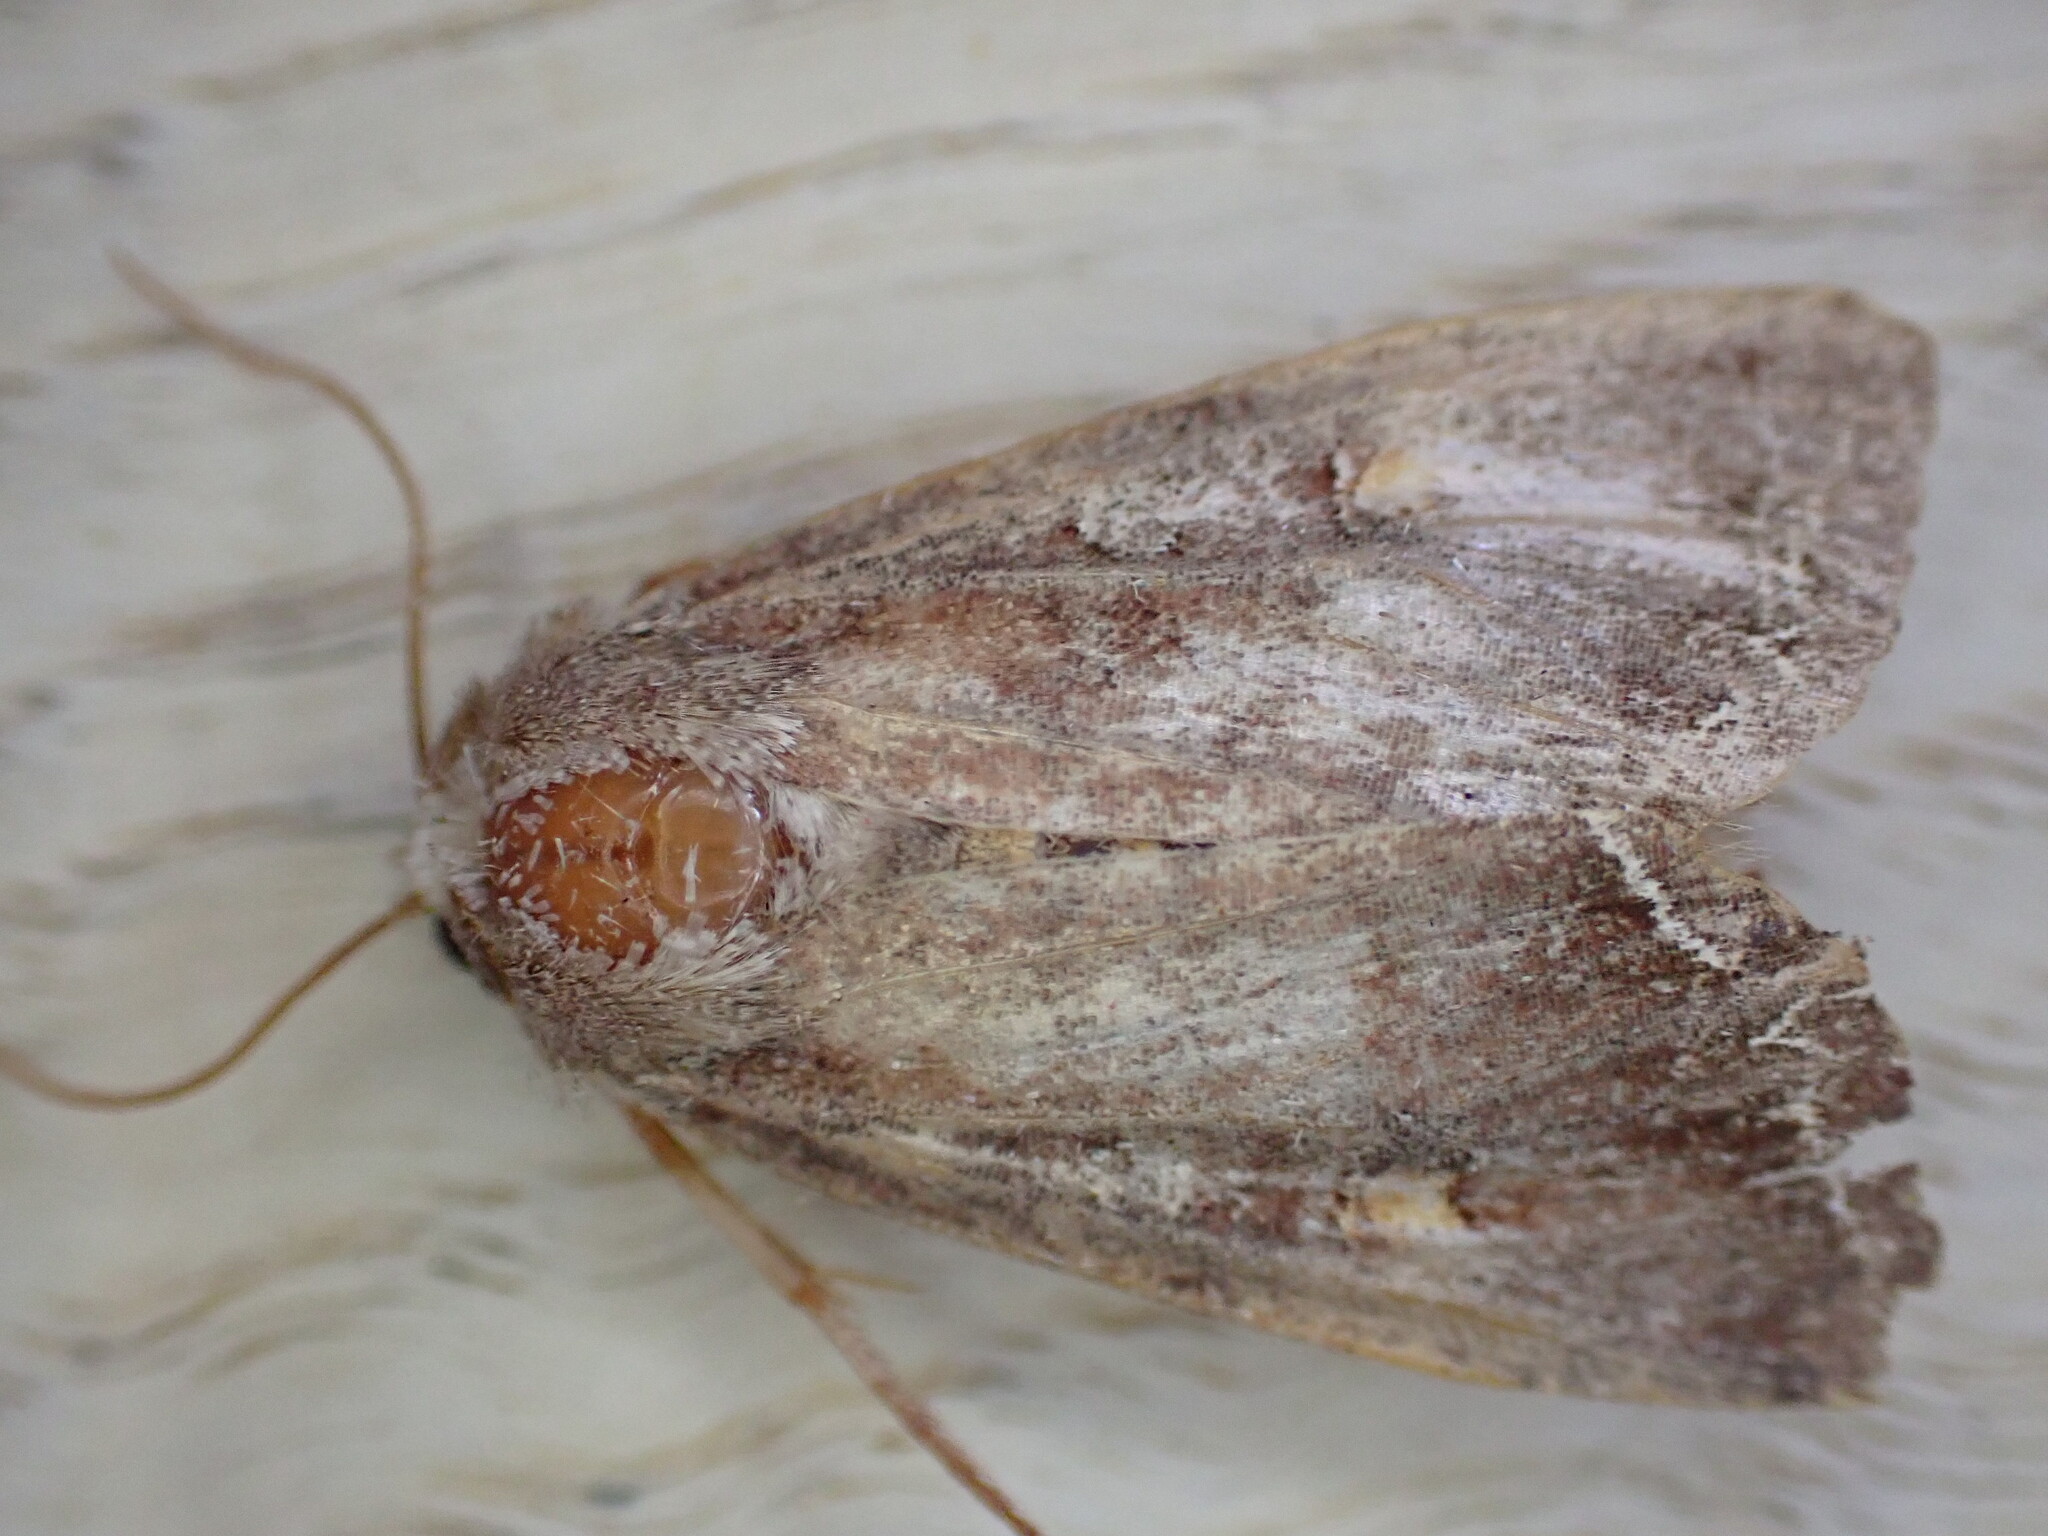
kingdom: Animalia
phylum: Arthropoda
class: Insecta
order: Lepidoptera
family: Noctuidae
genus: Lacanobia
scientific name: Lacanobia oleracea
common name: Bright-line brown-eye
